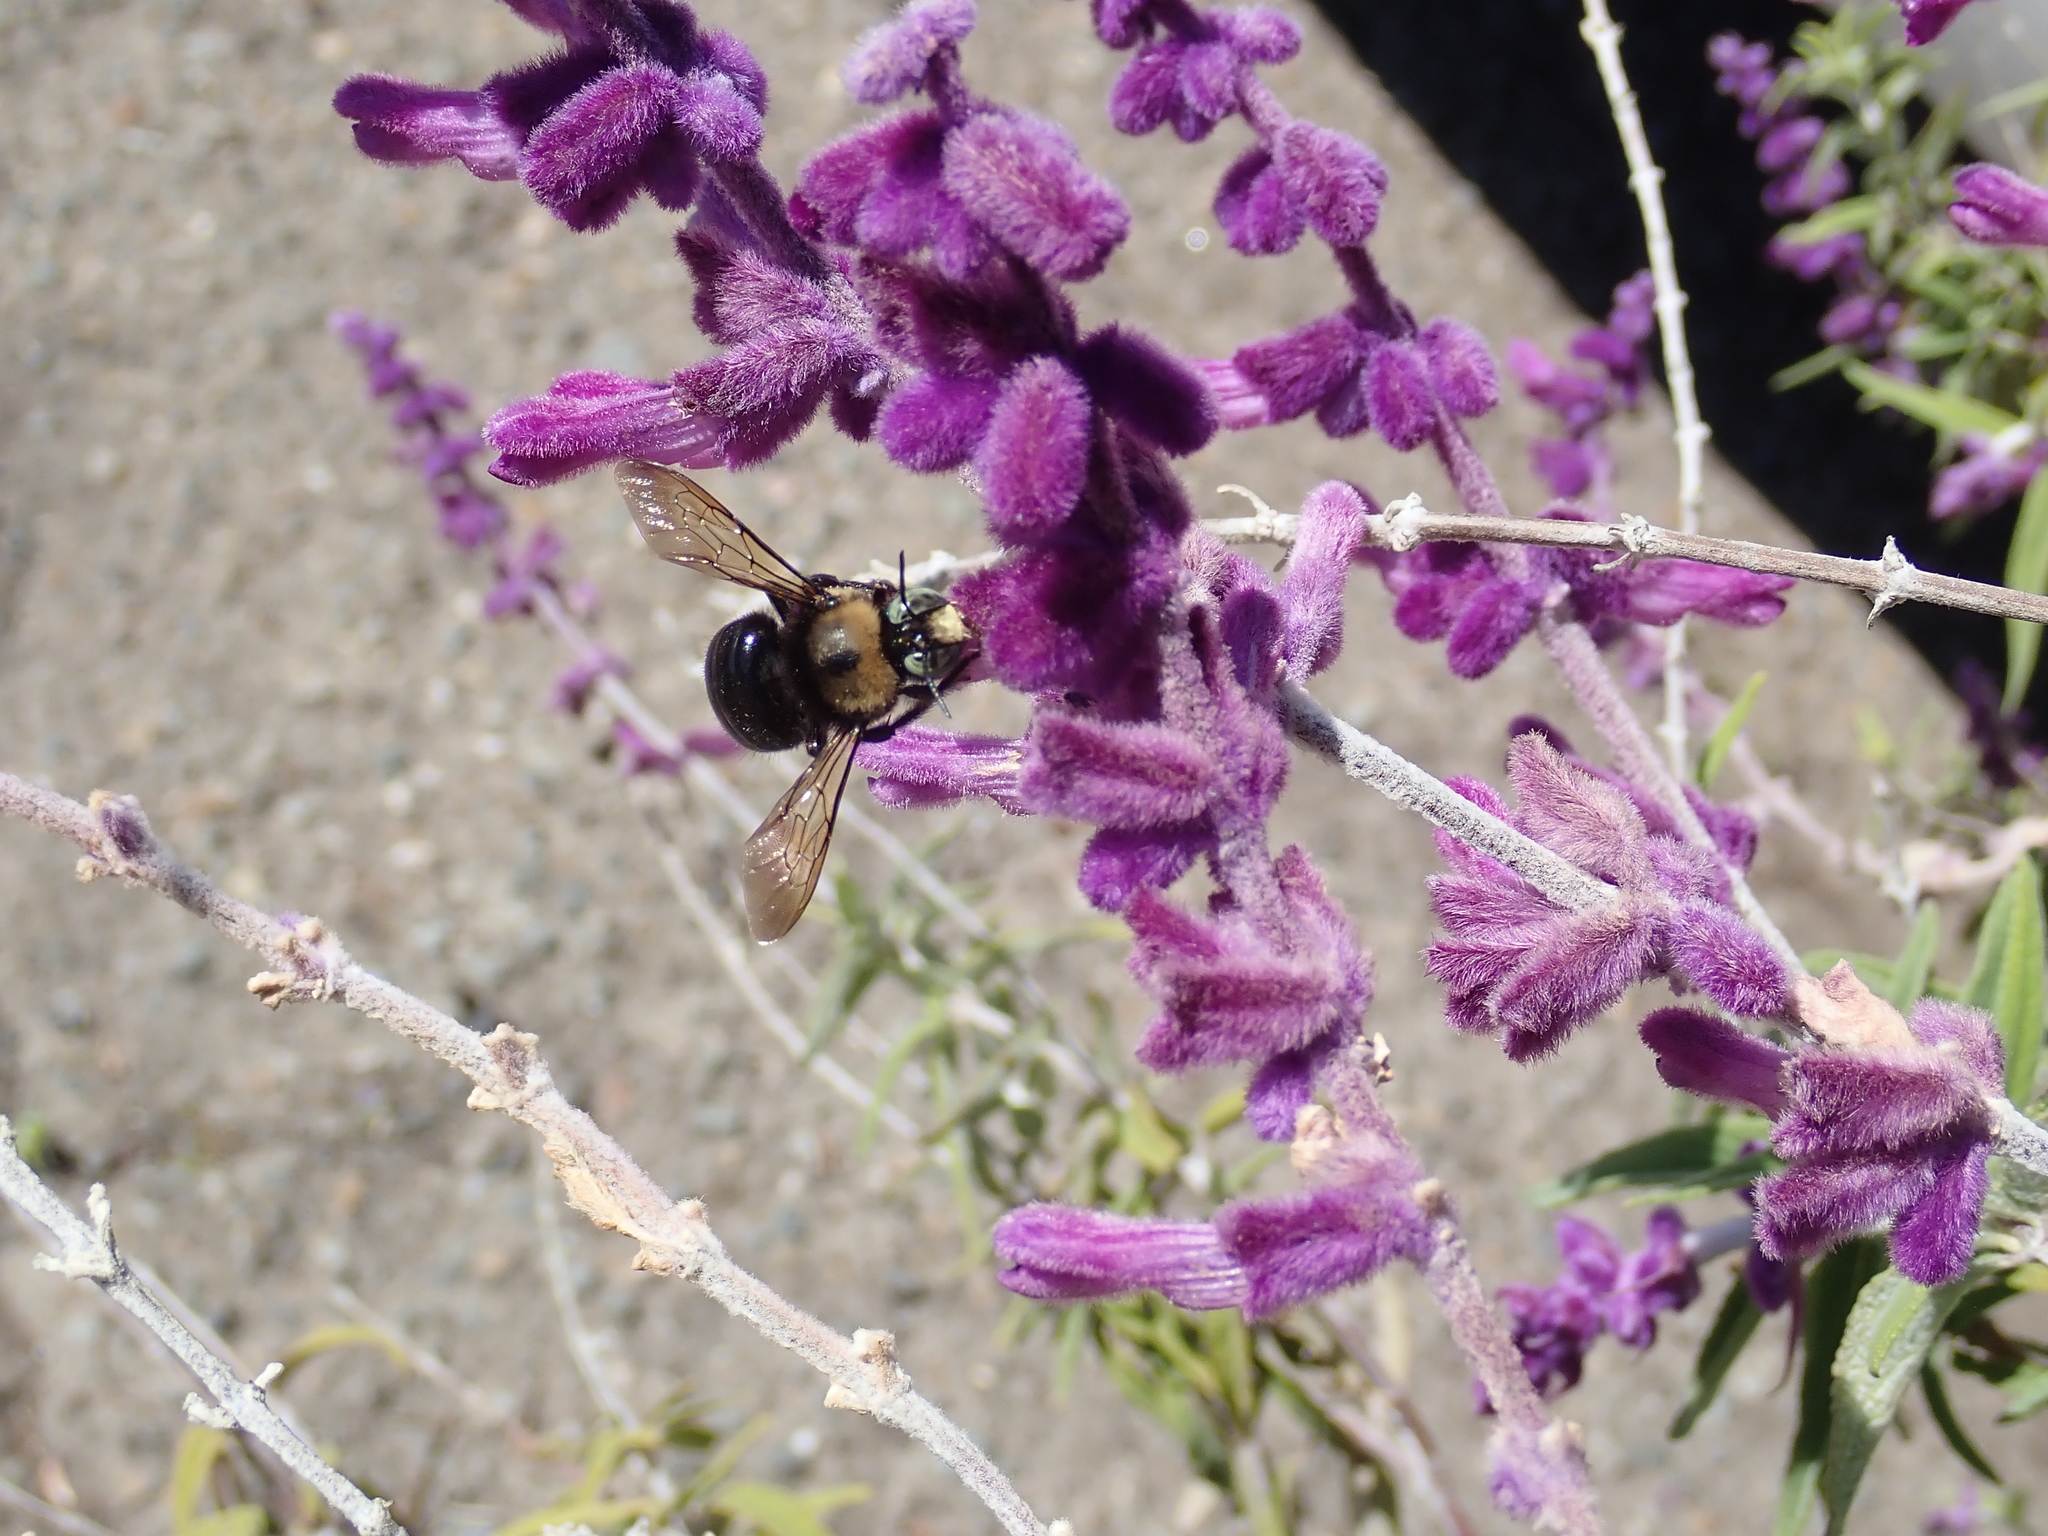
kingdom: Animalia
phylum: Arthropoda
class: Insecta
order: Hymenoptera
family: Apidae
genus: Xylocopa
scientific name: Xylocopa tabaniformis
